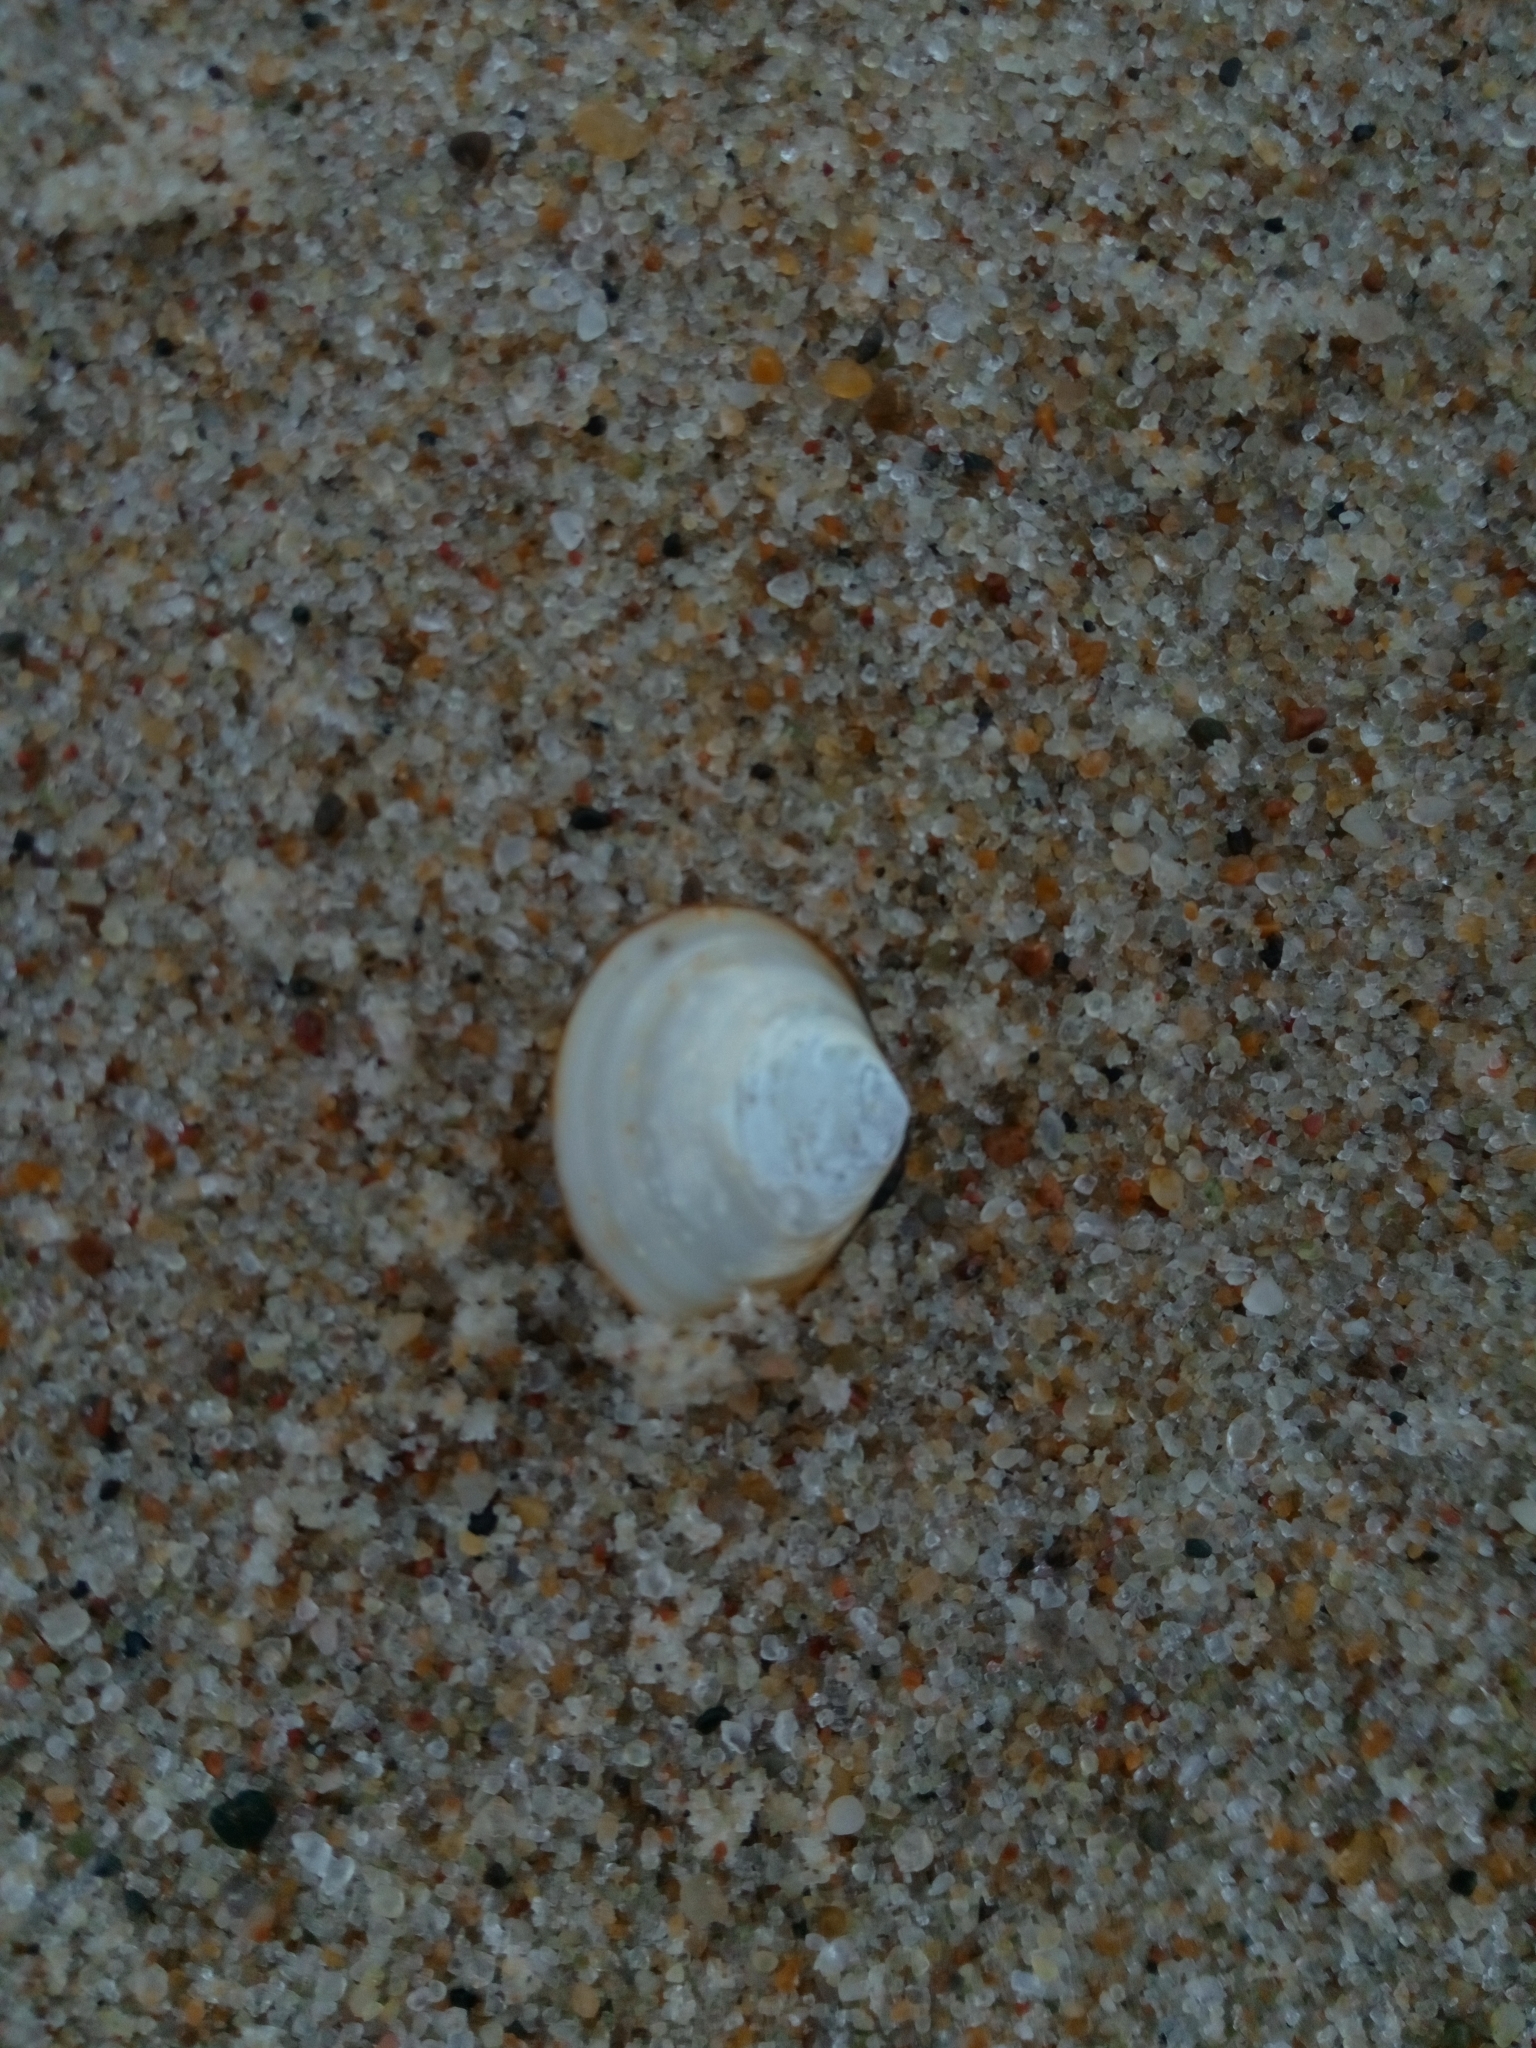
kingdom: Animalia
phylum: Mollusca
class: Bivalvia
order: Cardiida
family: Tellinidae
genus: Macoma
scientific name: Macoma balthica
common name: Baltic tellin
